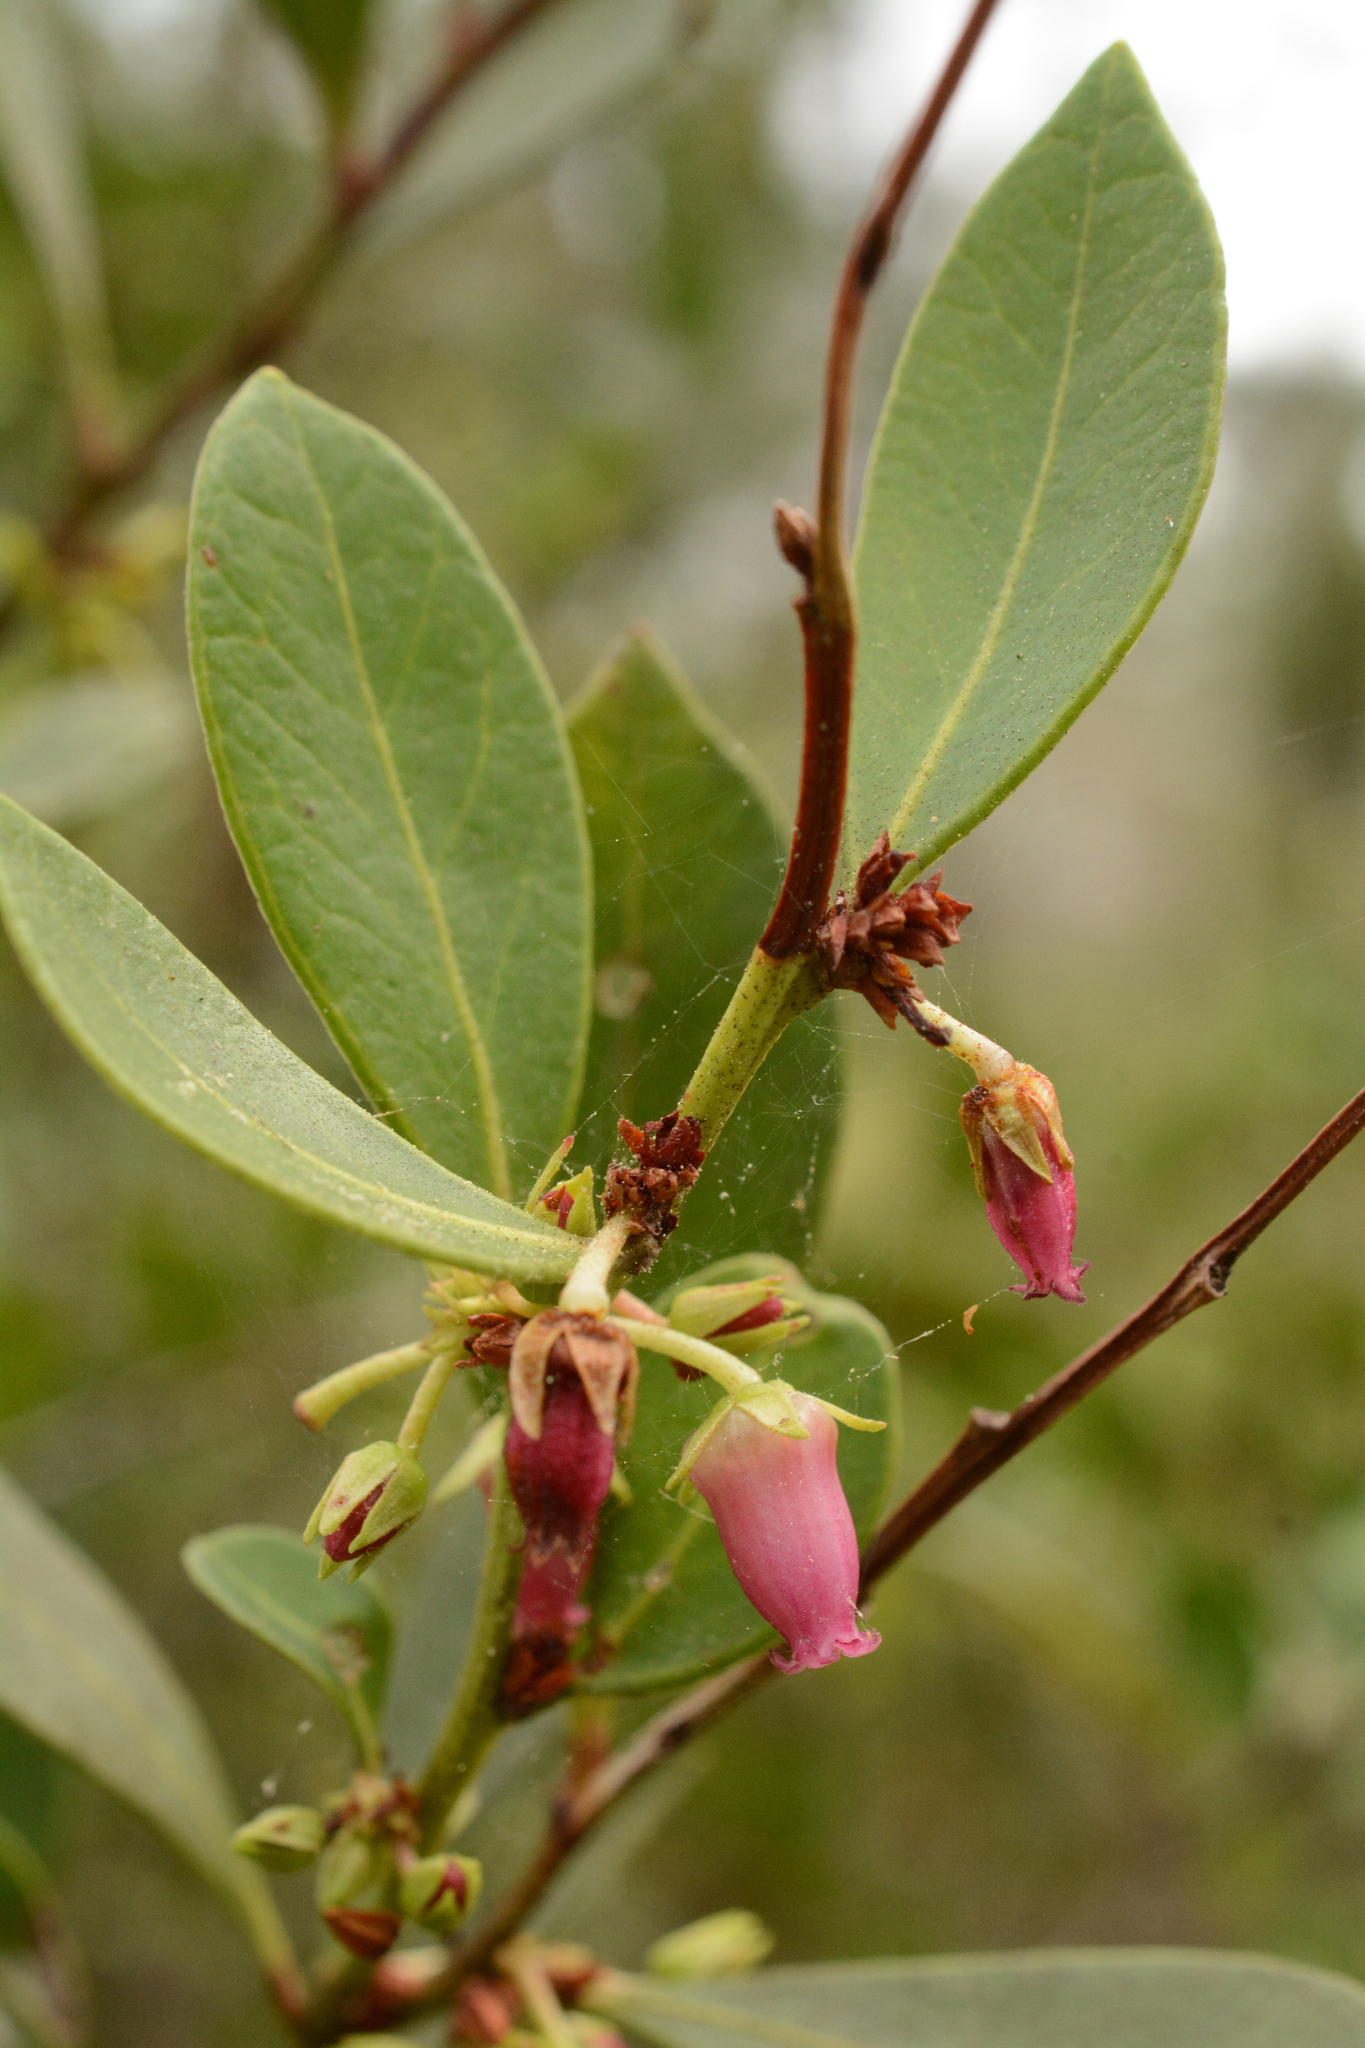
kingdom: Plantae
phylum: Tracheophyta
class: Magnoliopsida
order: Ericales
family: Ericaceae
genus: Lyonia
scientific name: Lyonia lucida
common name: Fetterbush
